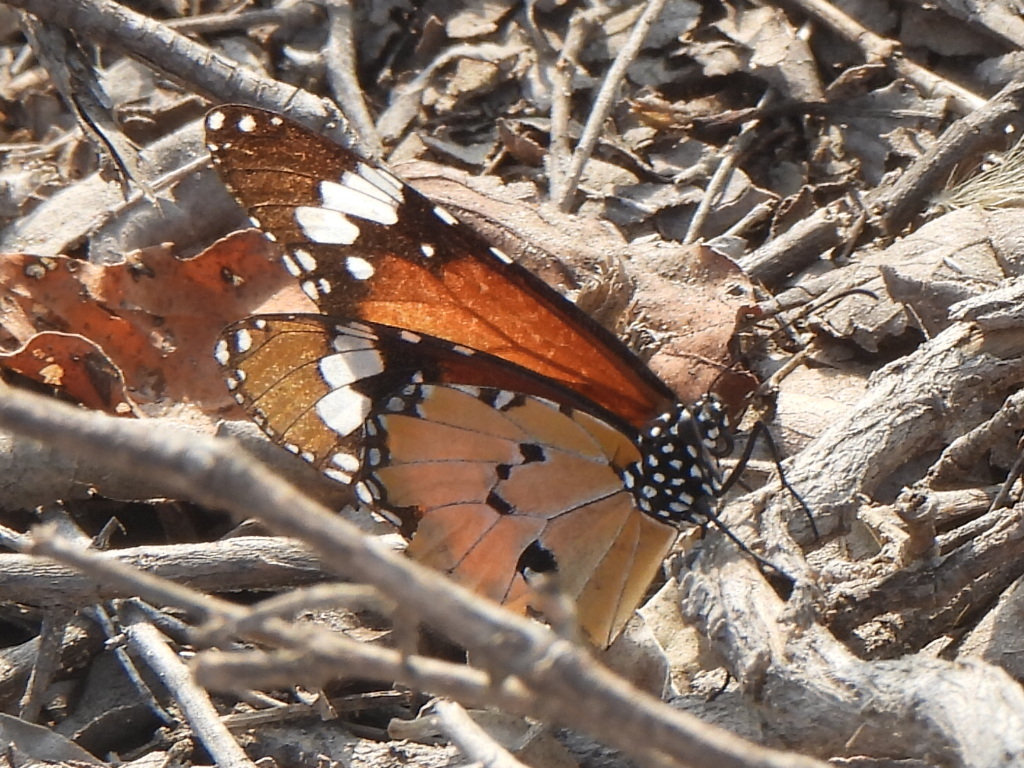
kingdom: Animalia
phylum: Arthropoda
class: Insecta
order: Lepidoptera
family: Nymphalidae
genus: Danaus
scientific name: Danaus chrysippus
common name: Plain tiger
